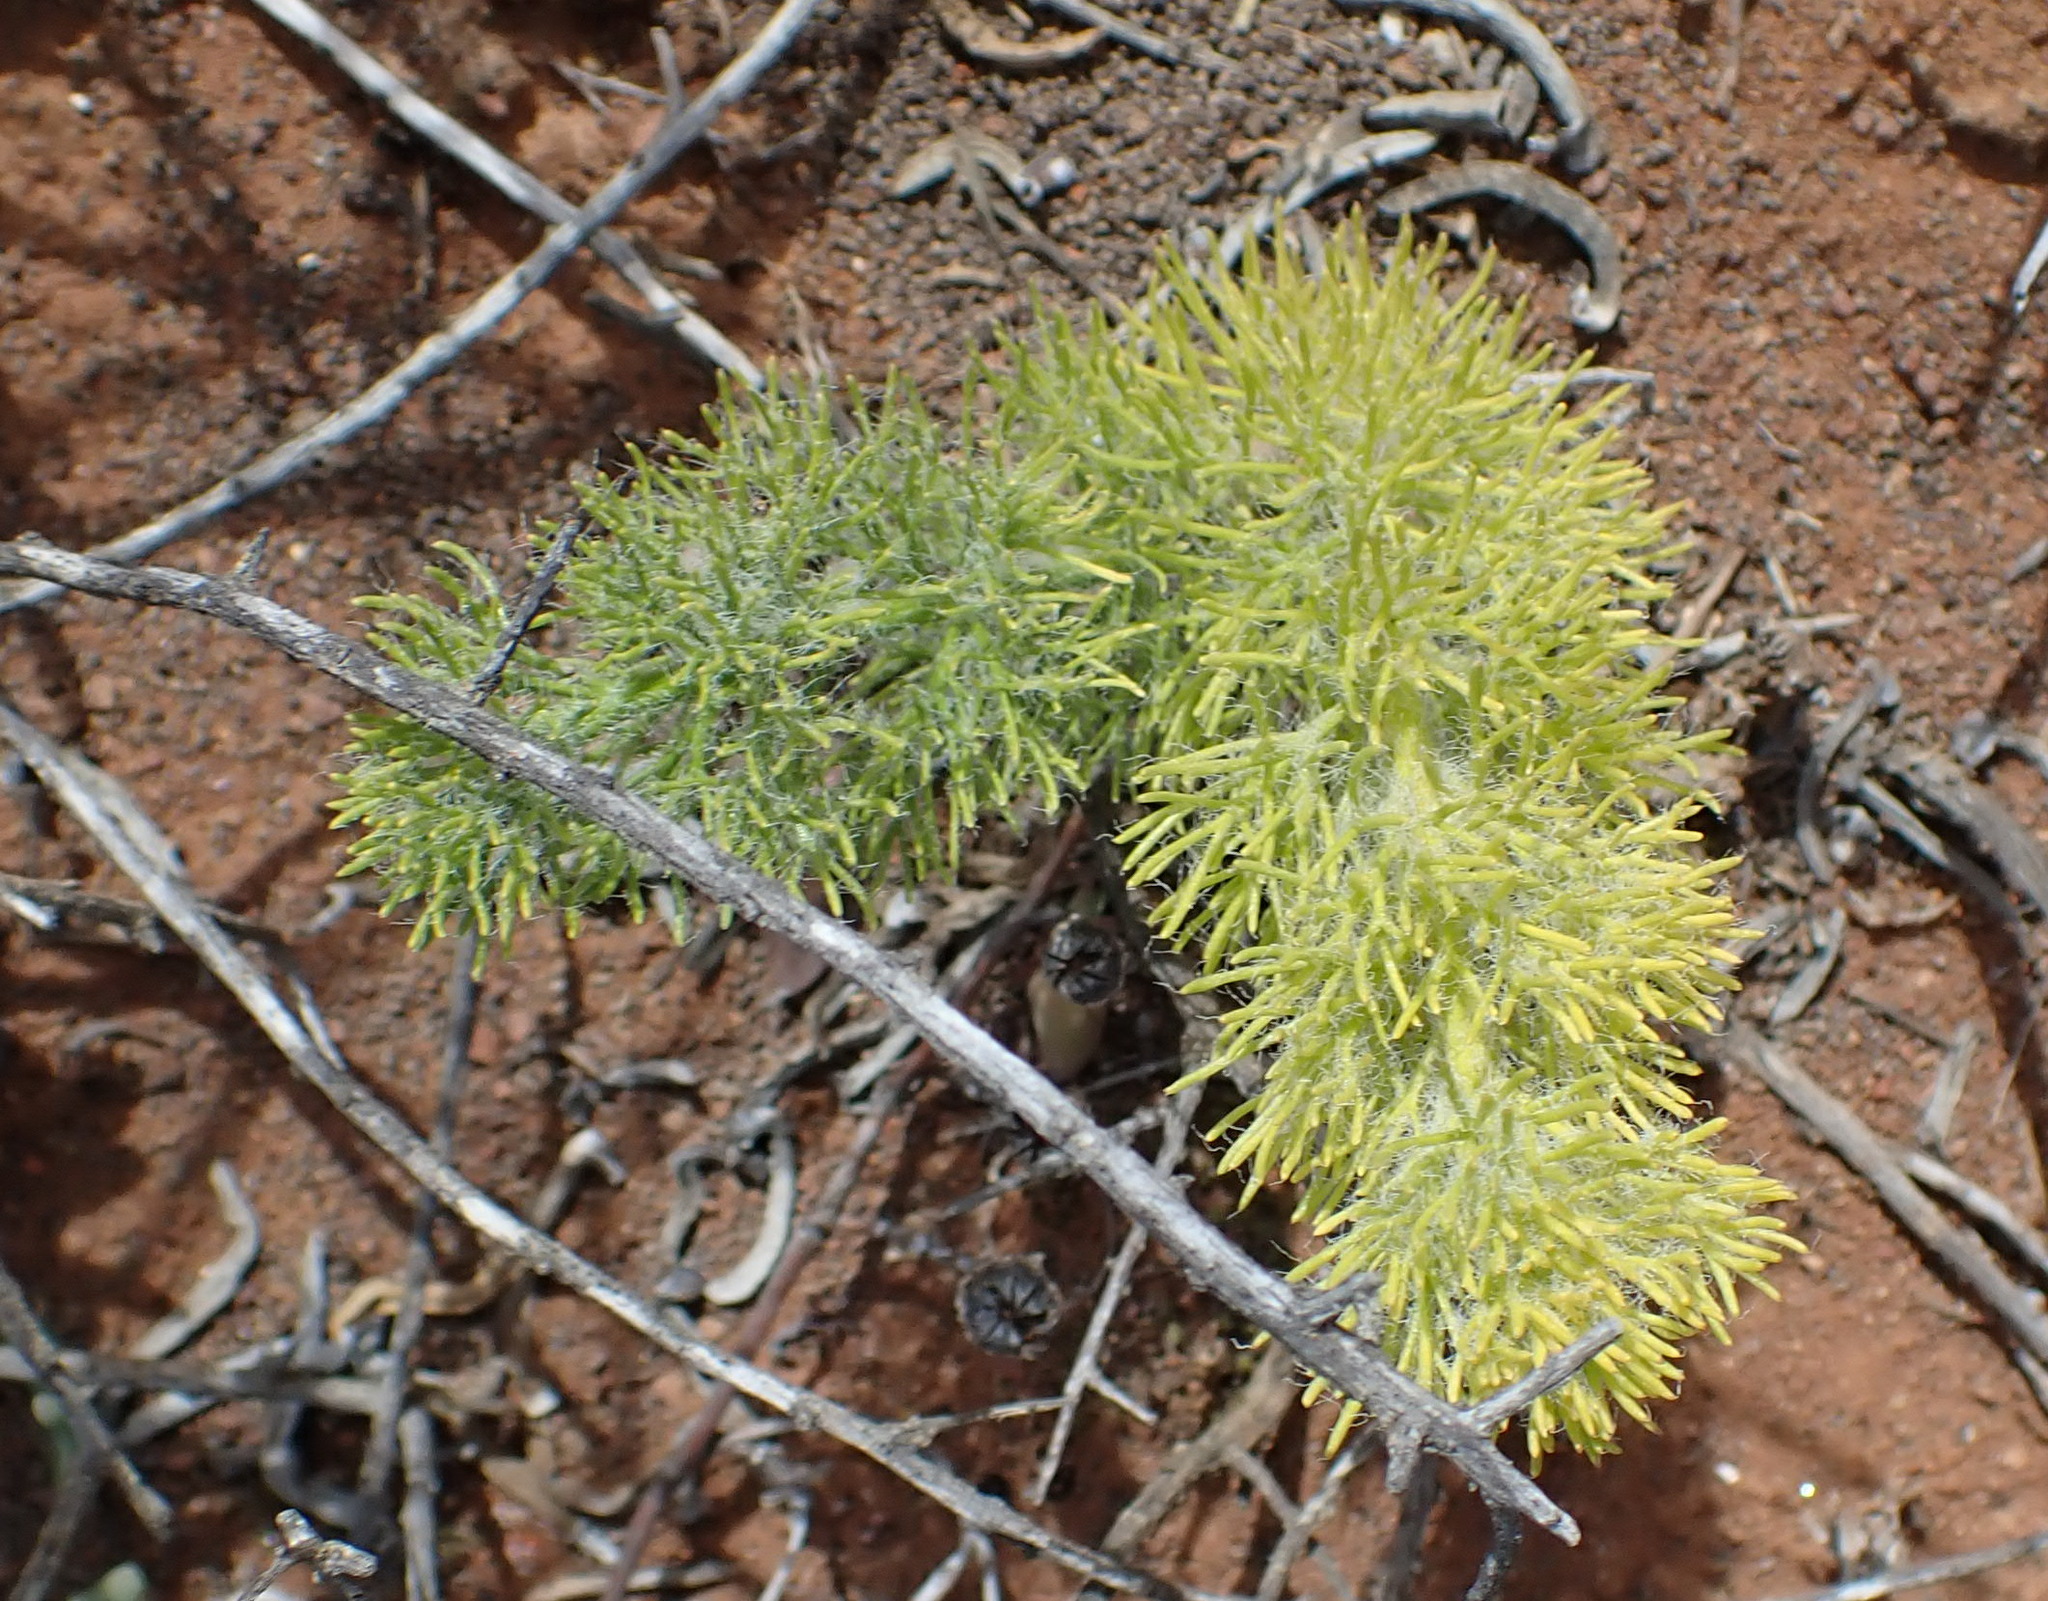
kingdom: Plantae
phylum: Tracheophyta
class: Liliopsida
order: Asparagales
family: Asparagaceae
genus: Eriospermum
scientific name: Eriospermum paradoxum
